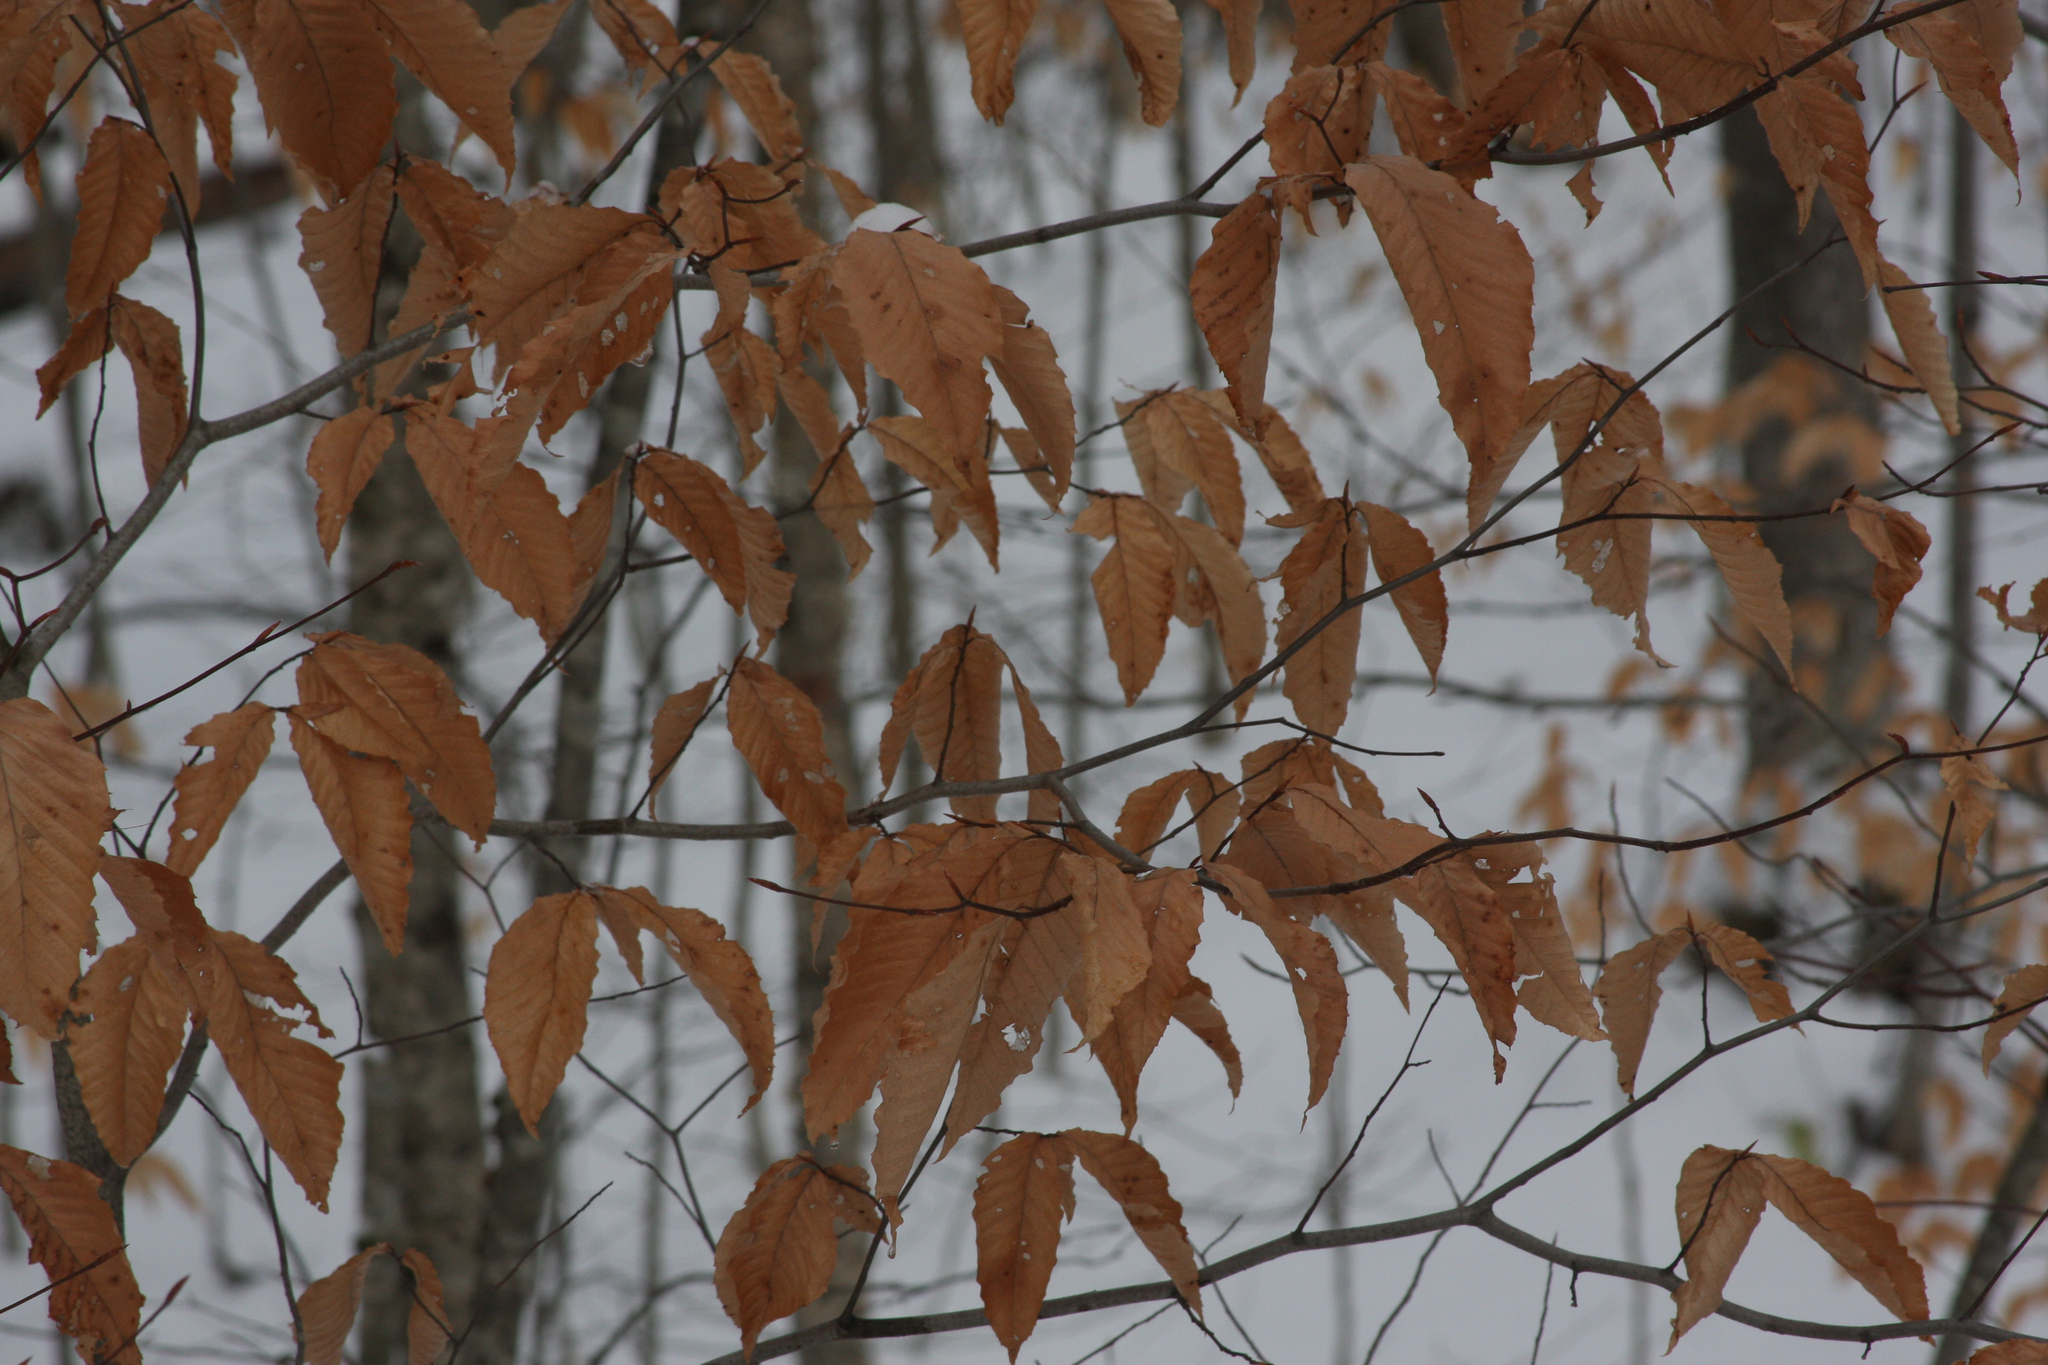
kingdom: Plantae
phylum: Tracheophyta
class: Magnoliopsida
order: Fagales
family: Fagaceae
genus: Fagus
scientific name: Fagus grandifolia
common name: American beech
